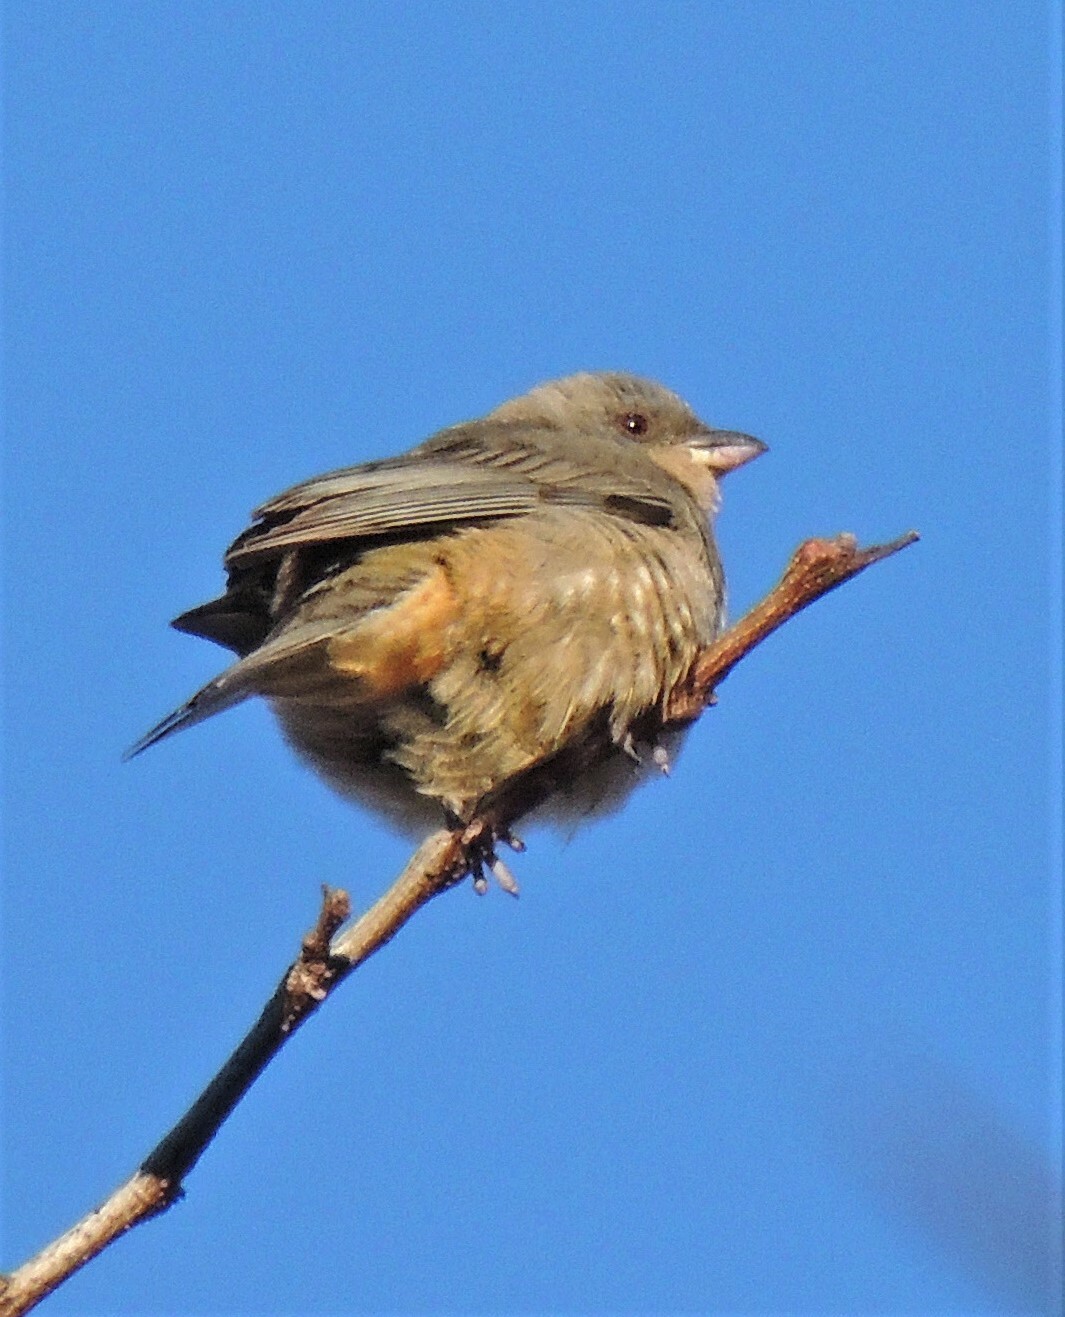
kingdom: Animalia
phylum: Chordata
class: Aves
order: Passeriformes
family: Thraupidae
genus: Rauenia
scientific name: Rauenia bonariensis
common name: Blue-and-yellow tanager
